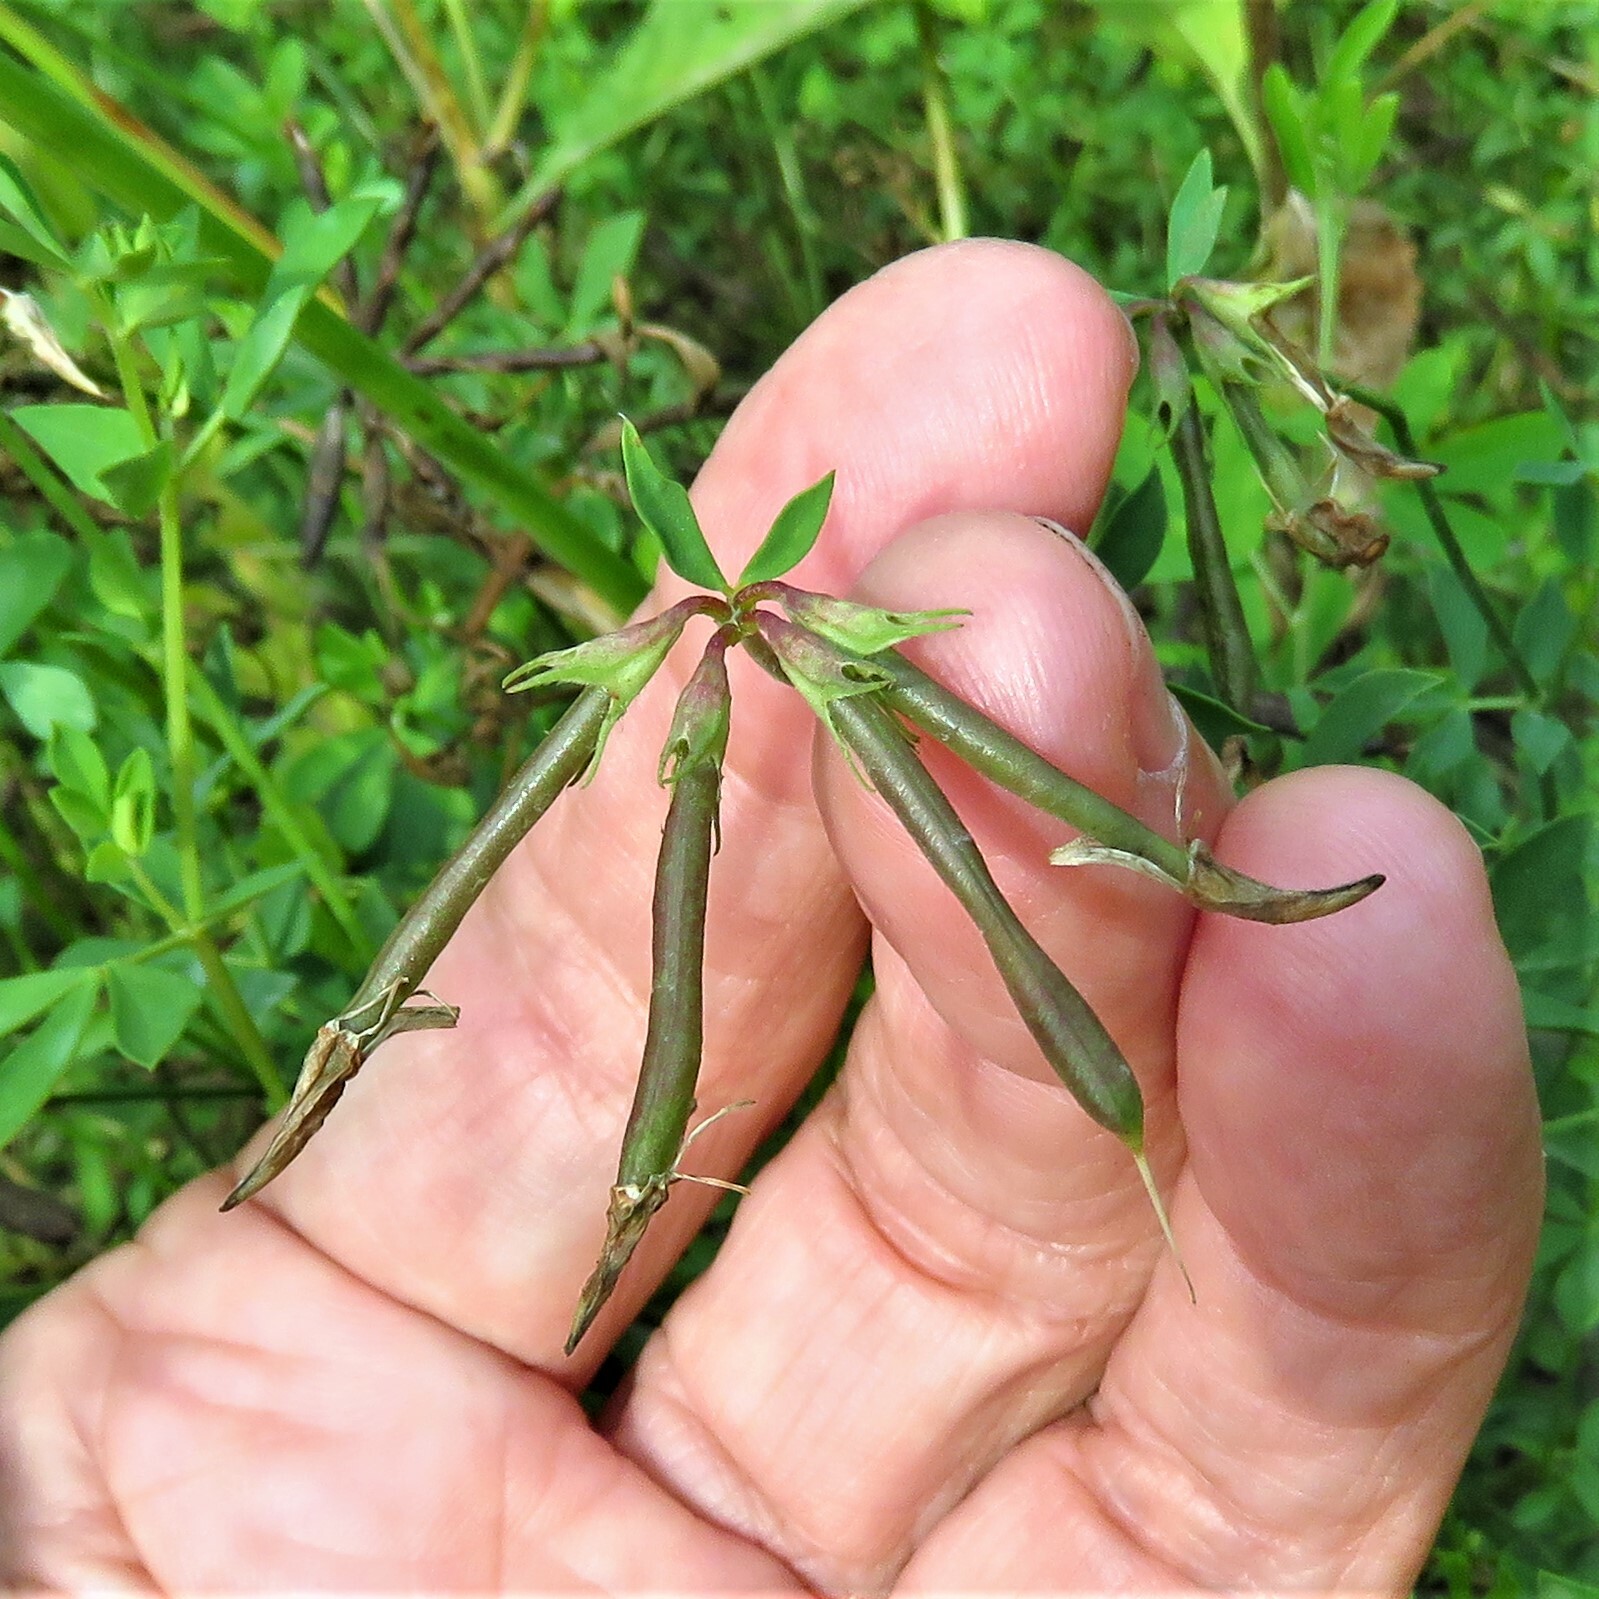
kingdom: Plantae
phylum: Tracheophyta
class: Magnoliopsida
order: Fabales
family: Fabaceae
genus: Lotus
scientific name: Lotus corniculatus
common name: Common bird's-foot-trefoil
